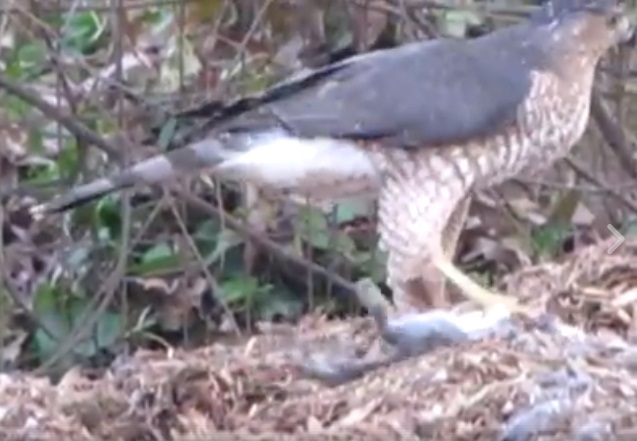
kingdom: Animalia
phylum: Chordata
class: Aves
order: Accipitriformes
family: Accipitridae
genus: Accipiter
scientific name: Accipiter cooperii
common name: Cooper's hawk
